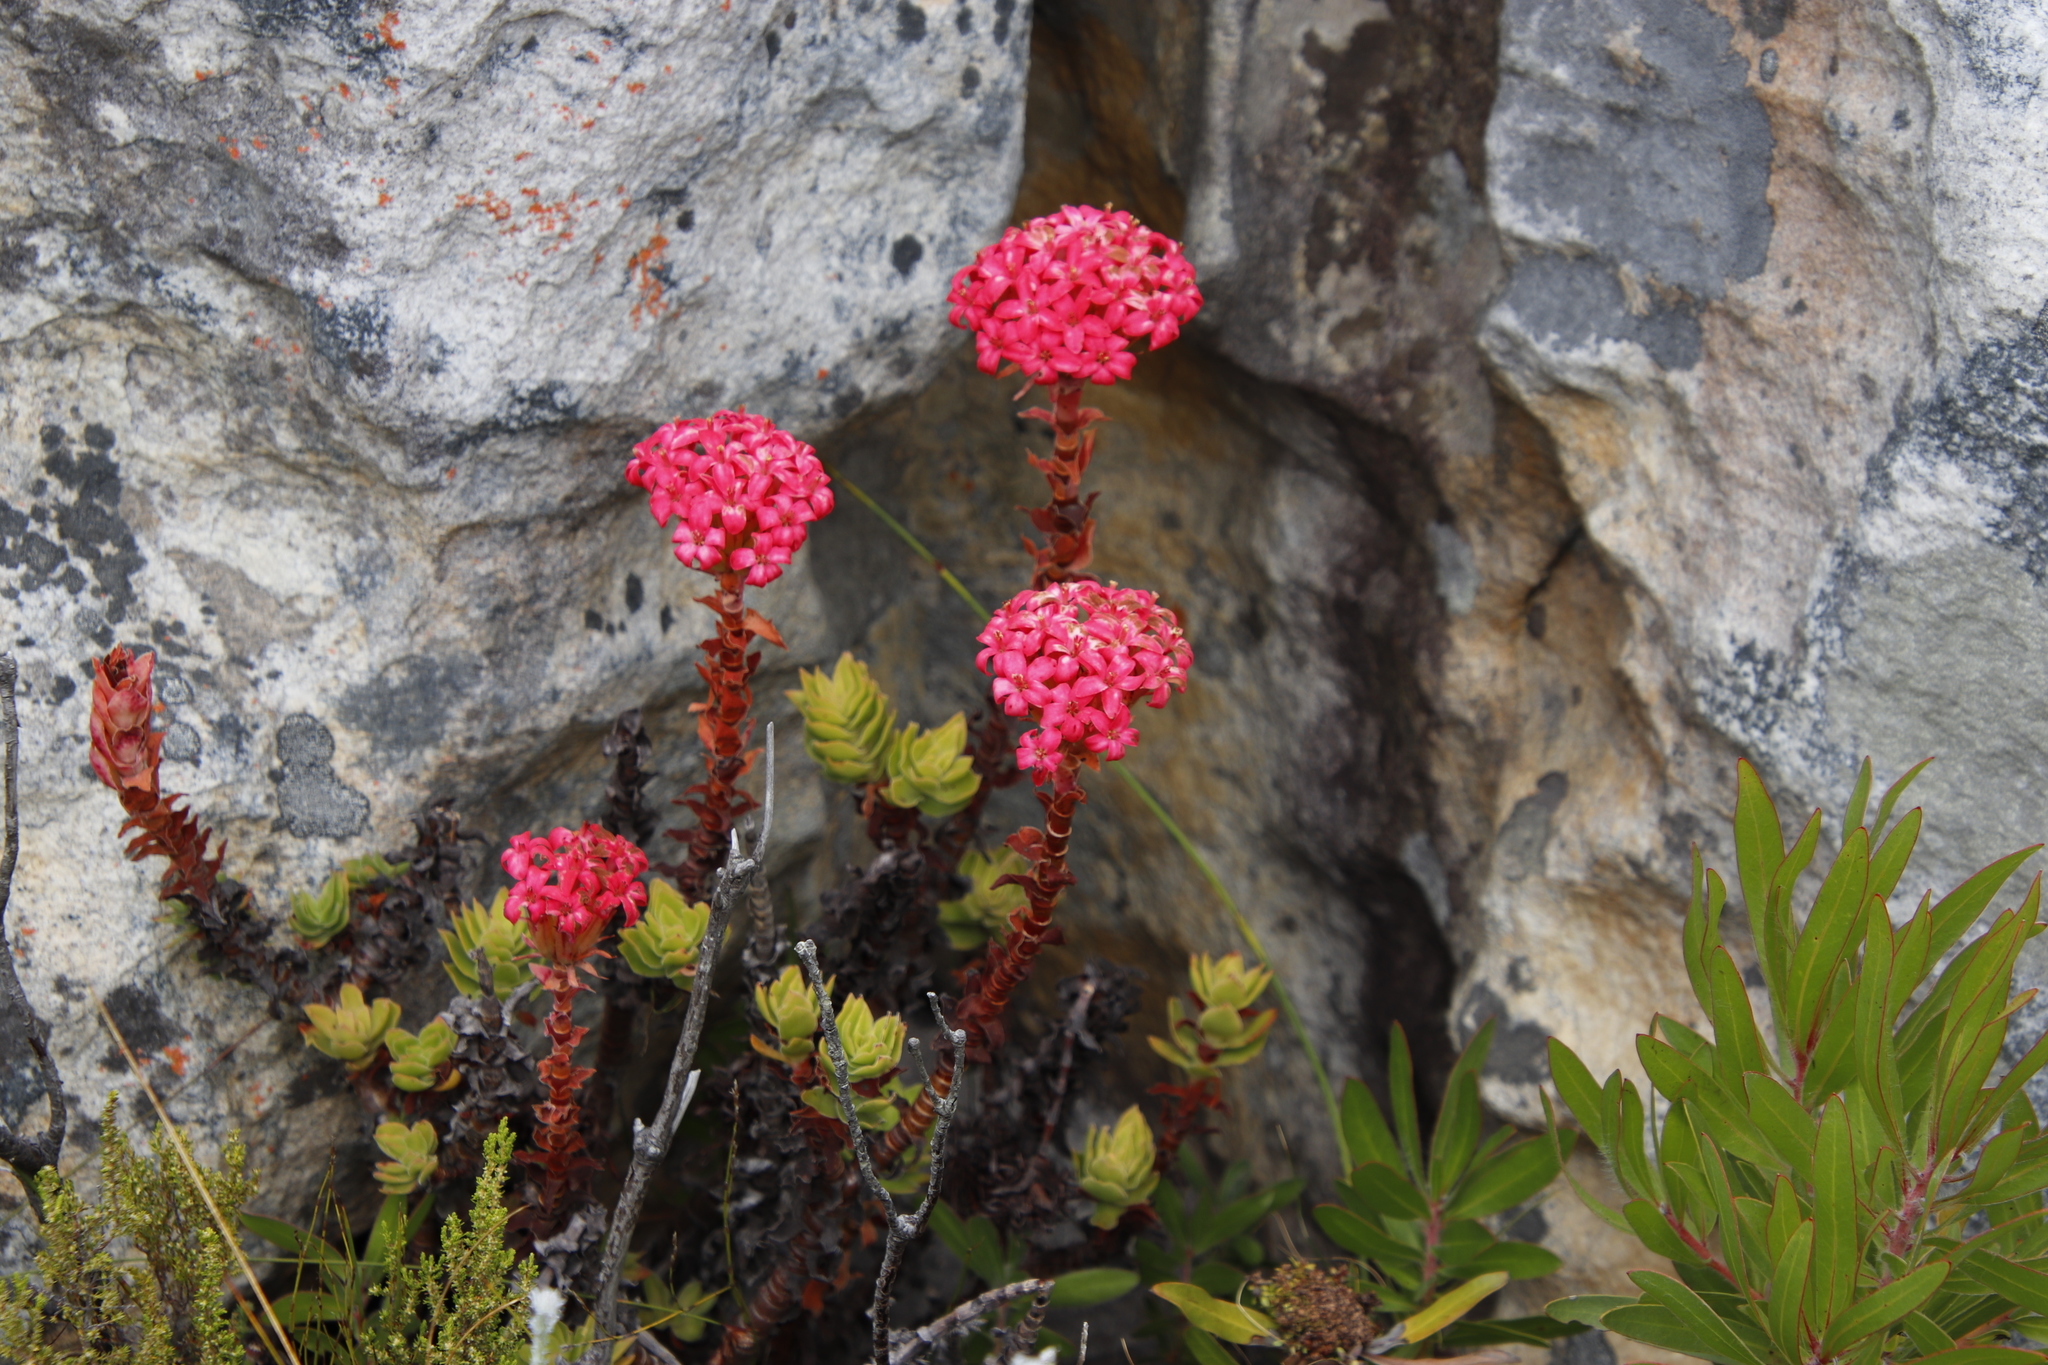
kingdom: Plantae
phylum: Tracheophyta
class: Magnoliopsida
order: Saxifragales
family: Crassulaceae
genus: Crassula
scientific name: Crassula coccinea
